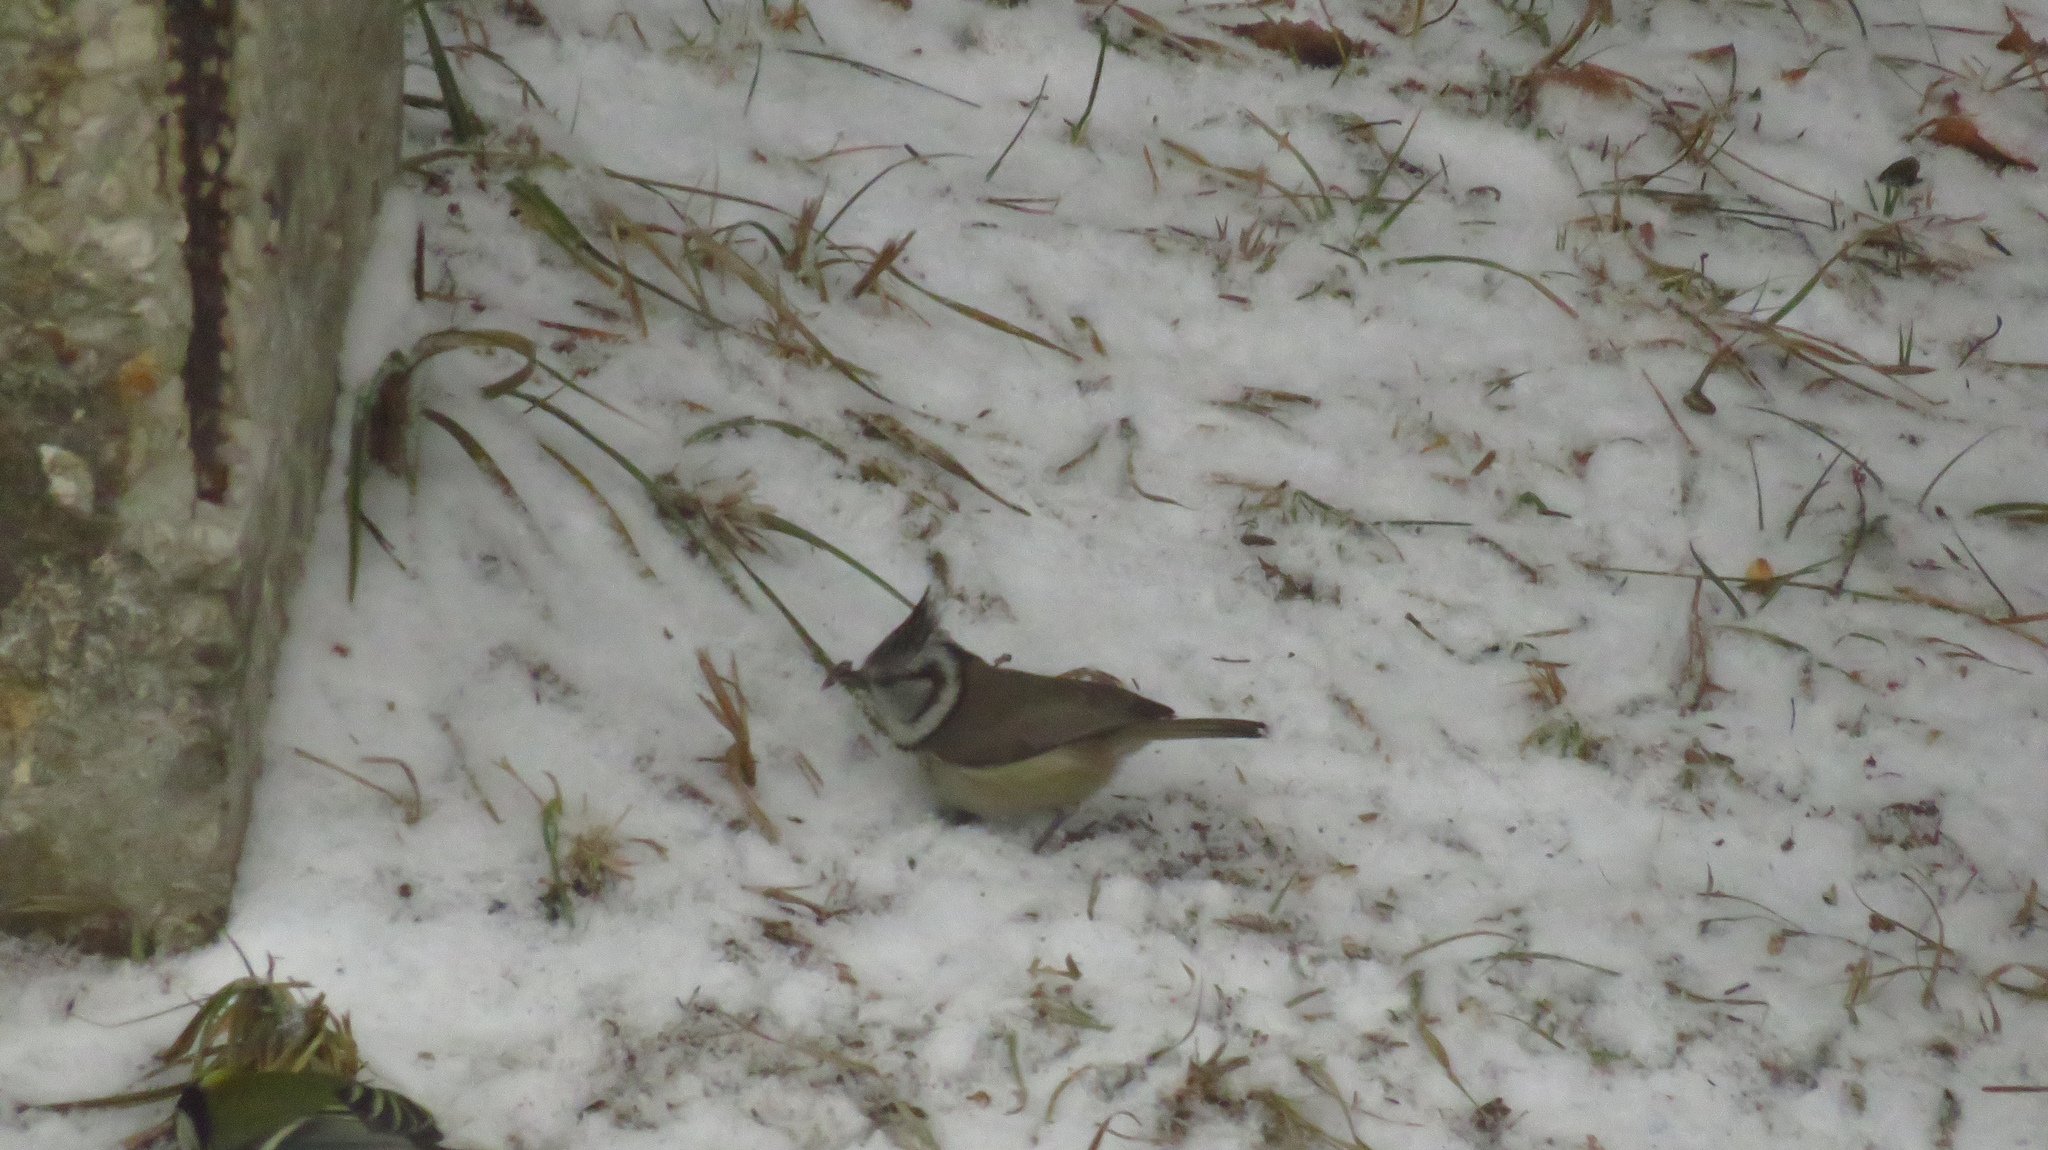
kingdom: Animalia
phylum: Chordata
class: Aves
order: Passeriformes
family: Paridae
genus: Lophophanes
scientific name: Lophophanes cristatus
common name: European crested tit
